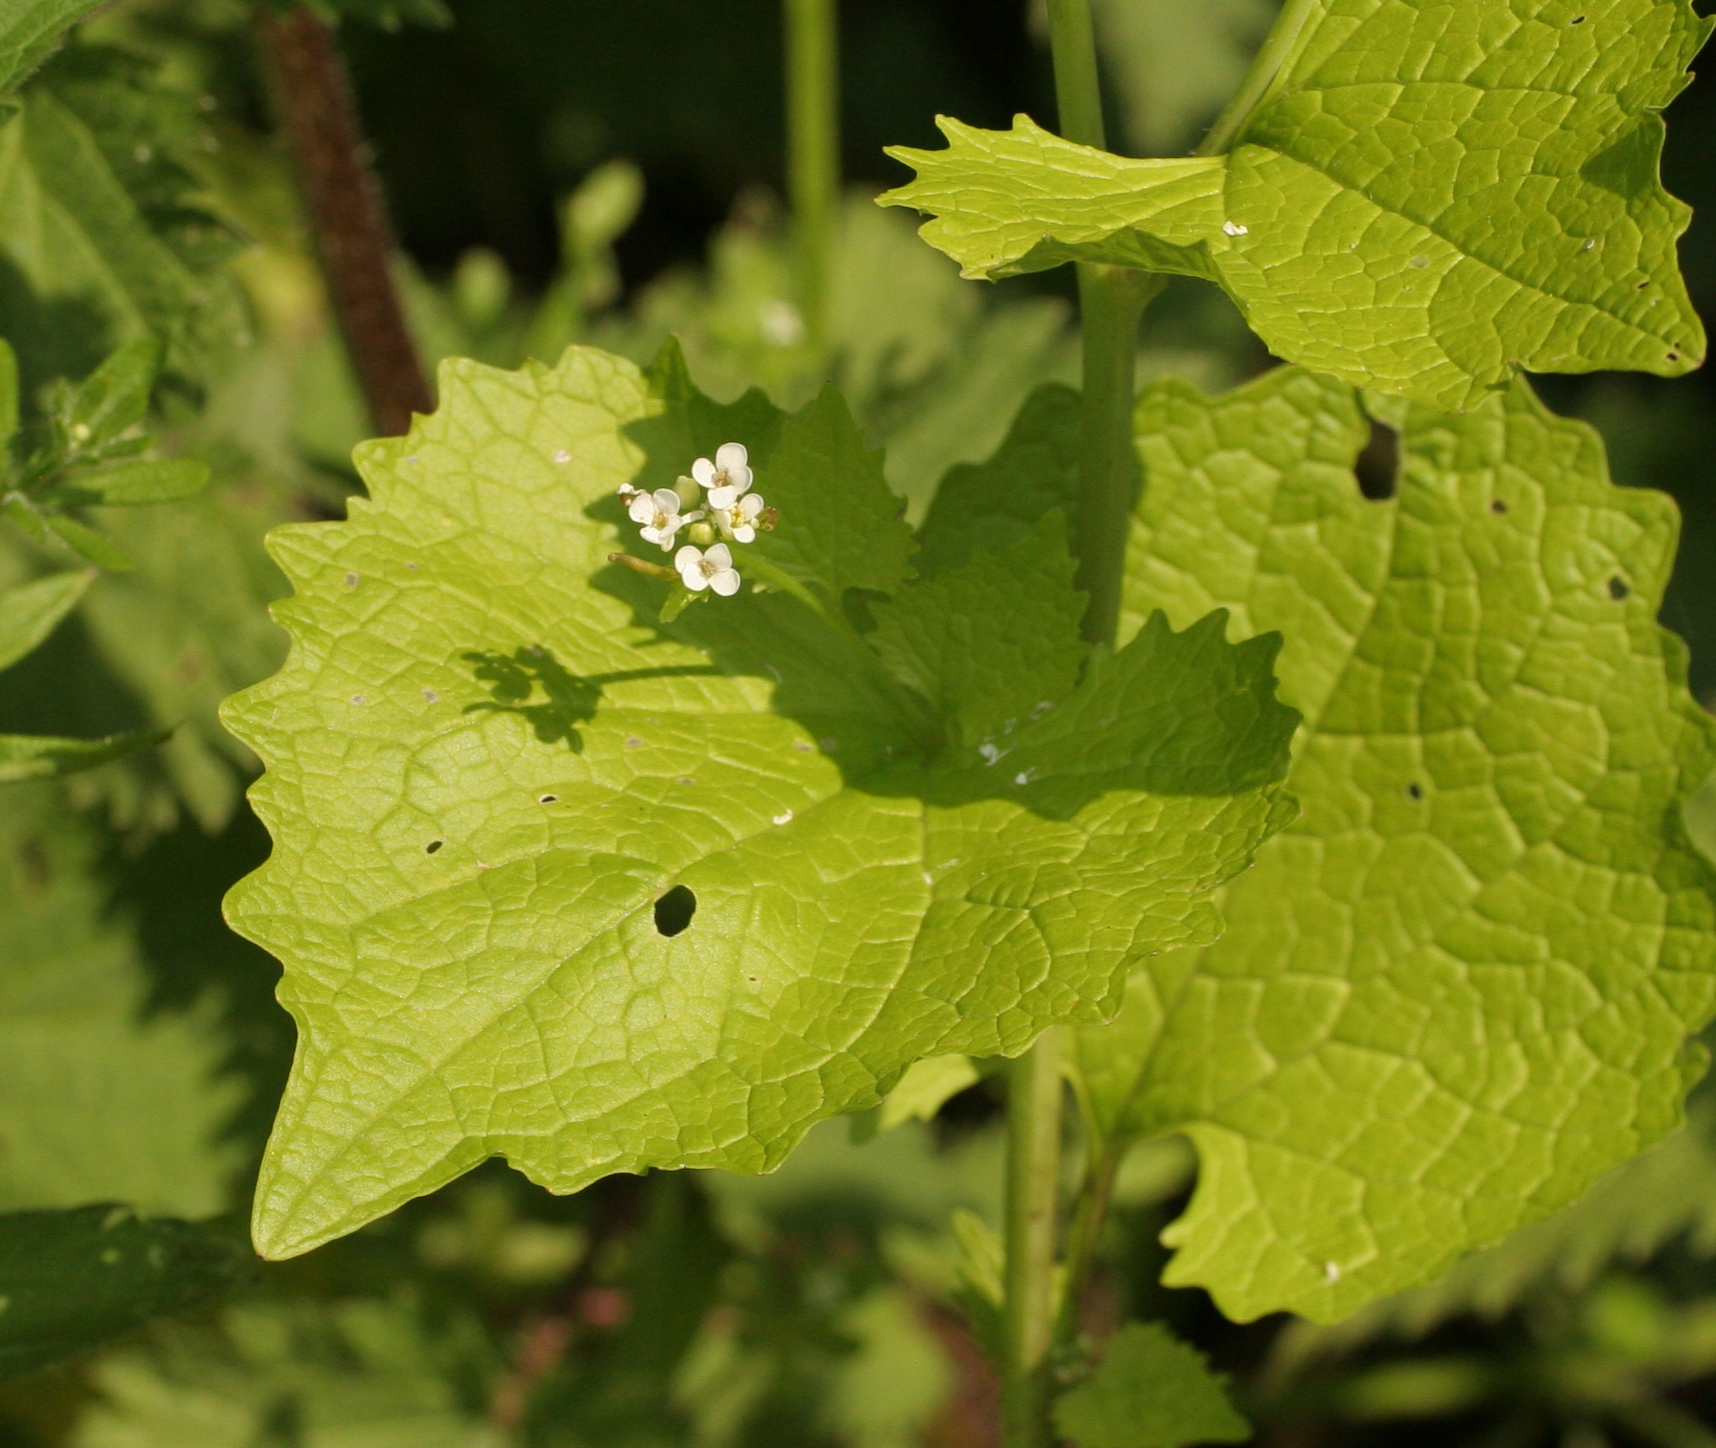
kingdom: Plantae
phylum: Tracheophyta
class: Magnoliopsida
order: Brassicales
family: Brassicaceae
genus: Alliaria
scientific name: Alliaria petiolata
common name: Garlic mustard
